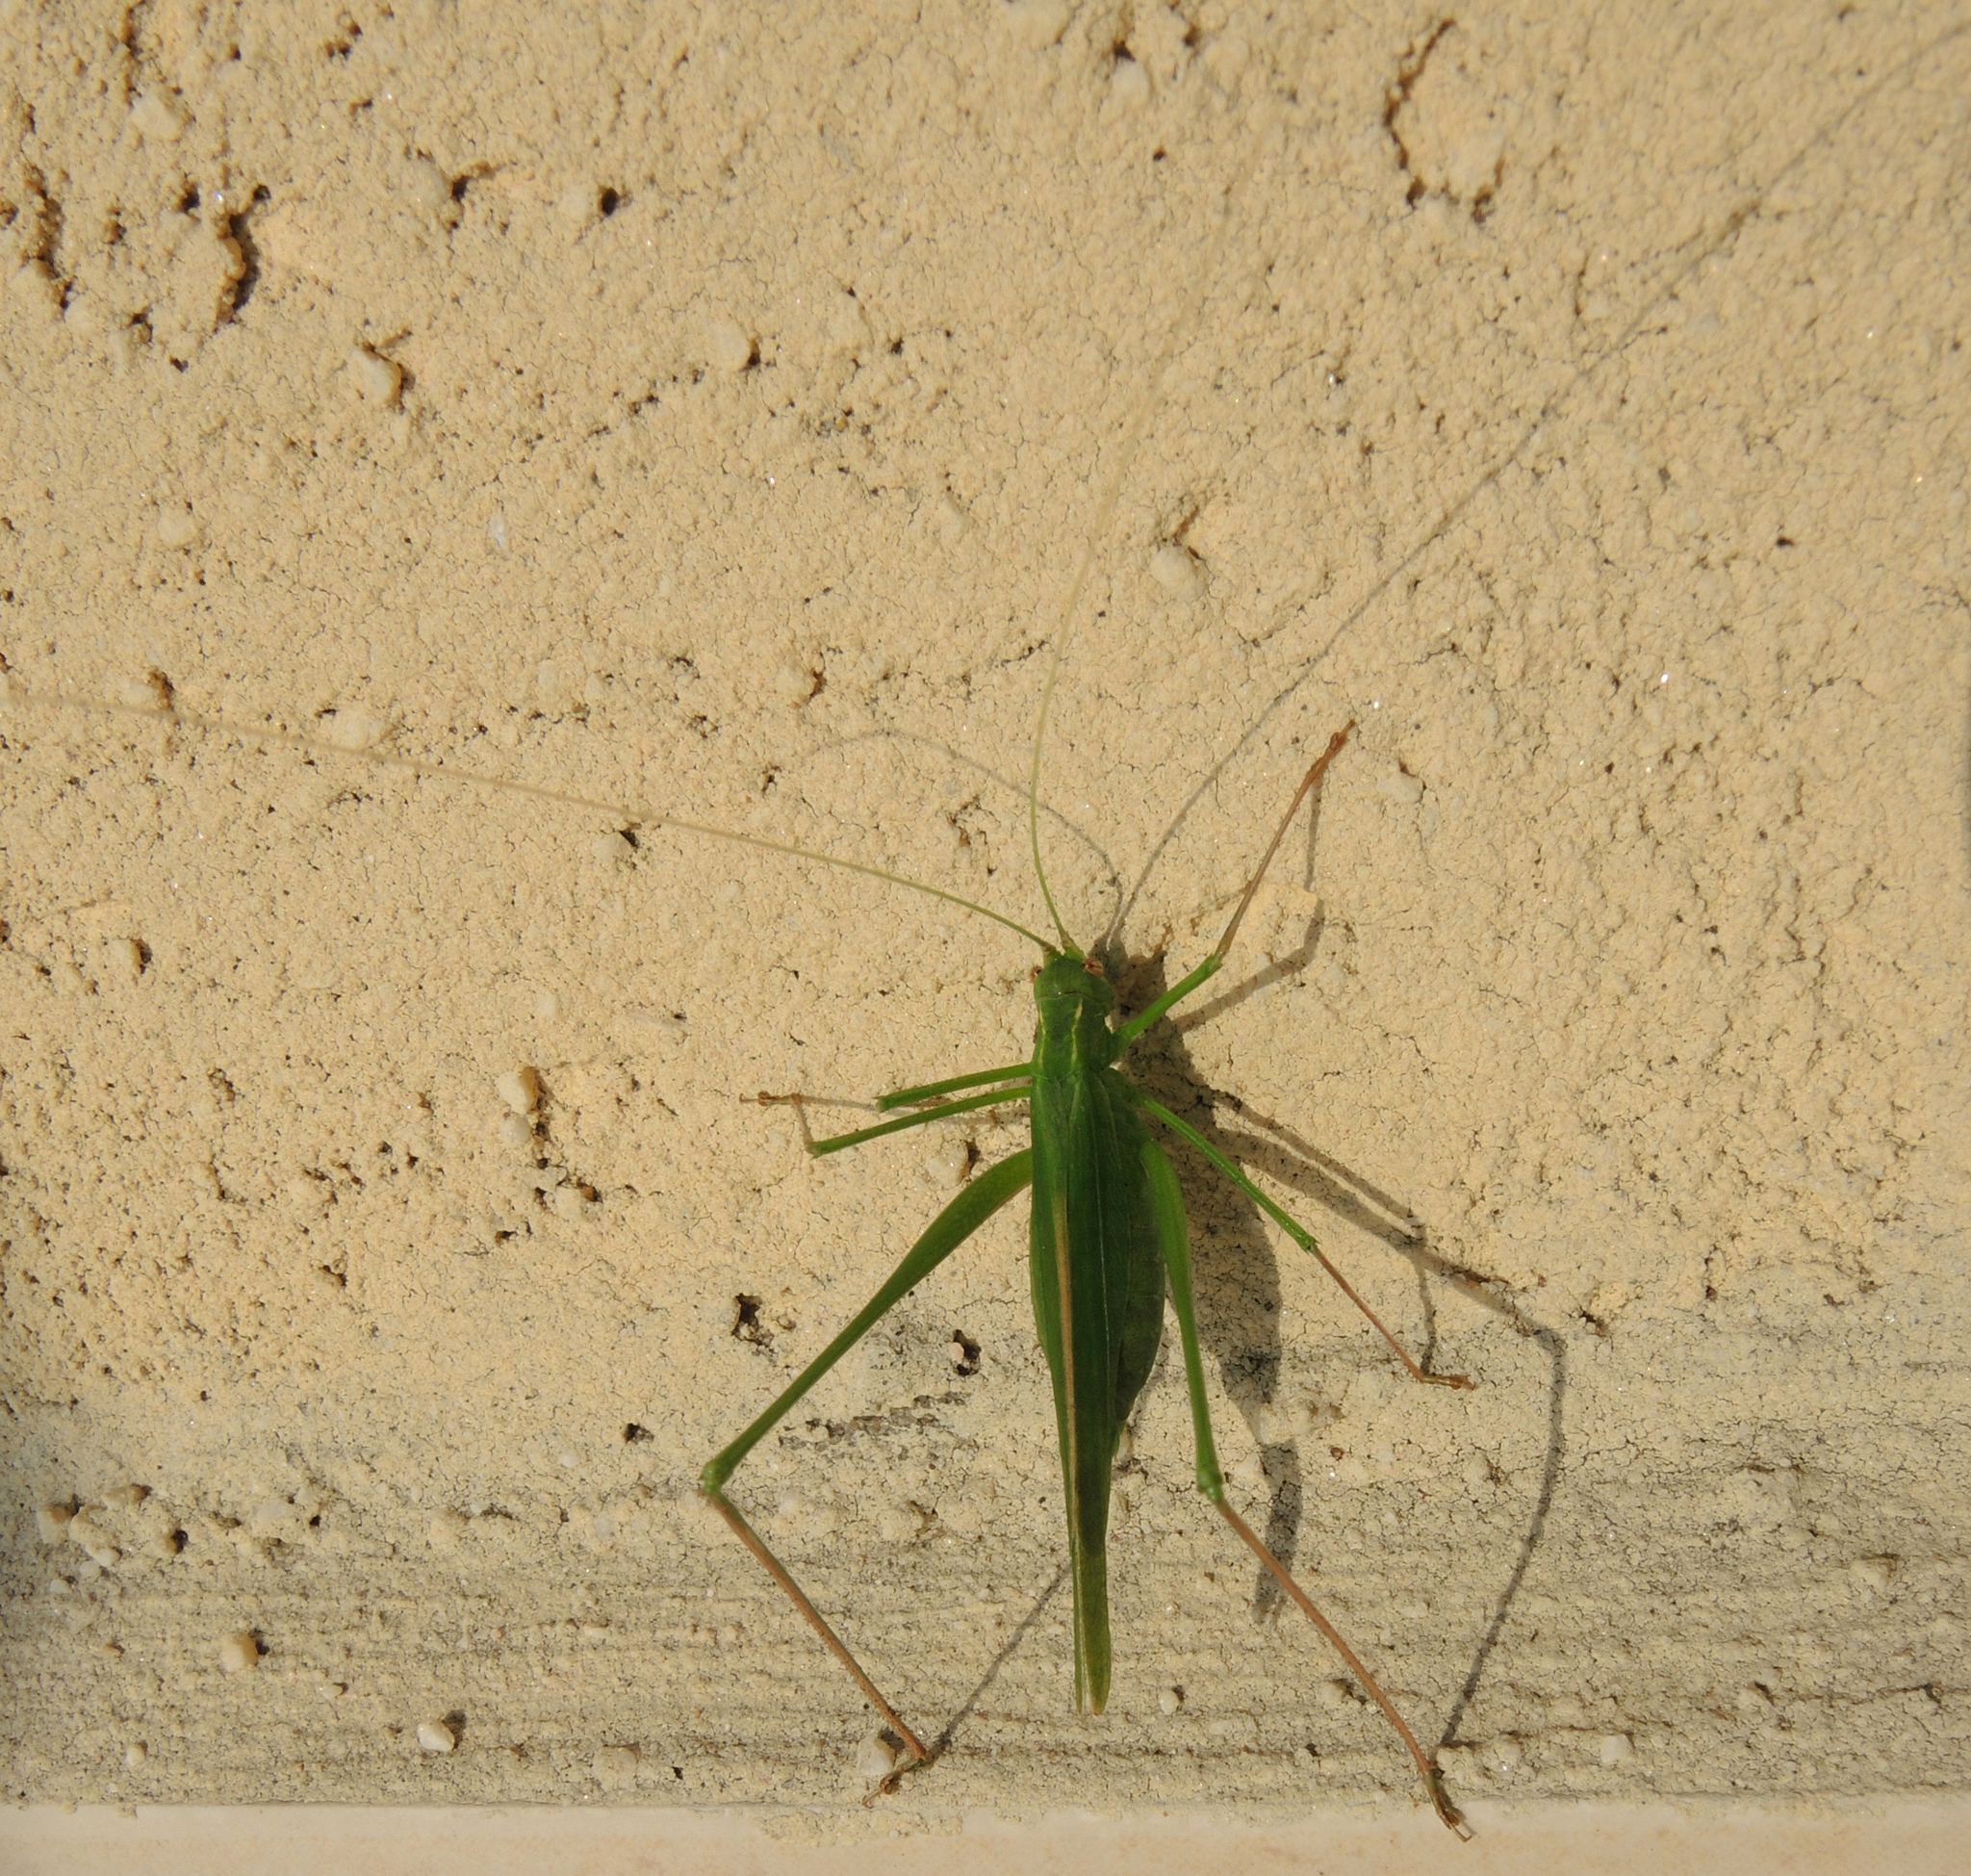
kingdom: Animalia
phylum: Arthropoda
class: Insecta
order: Orthoptera
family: Tettigoniidae
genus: Tylopsis
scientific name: Tylopsis lilifolia
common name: Lily bush-cricket
